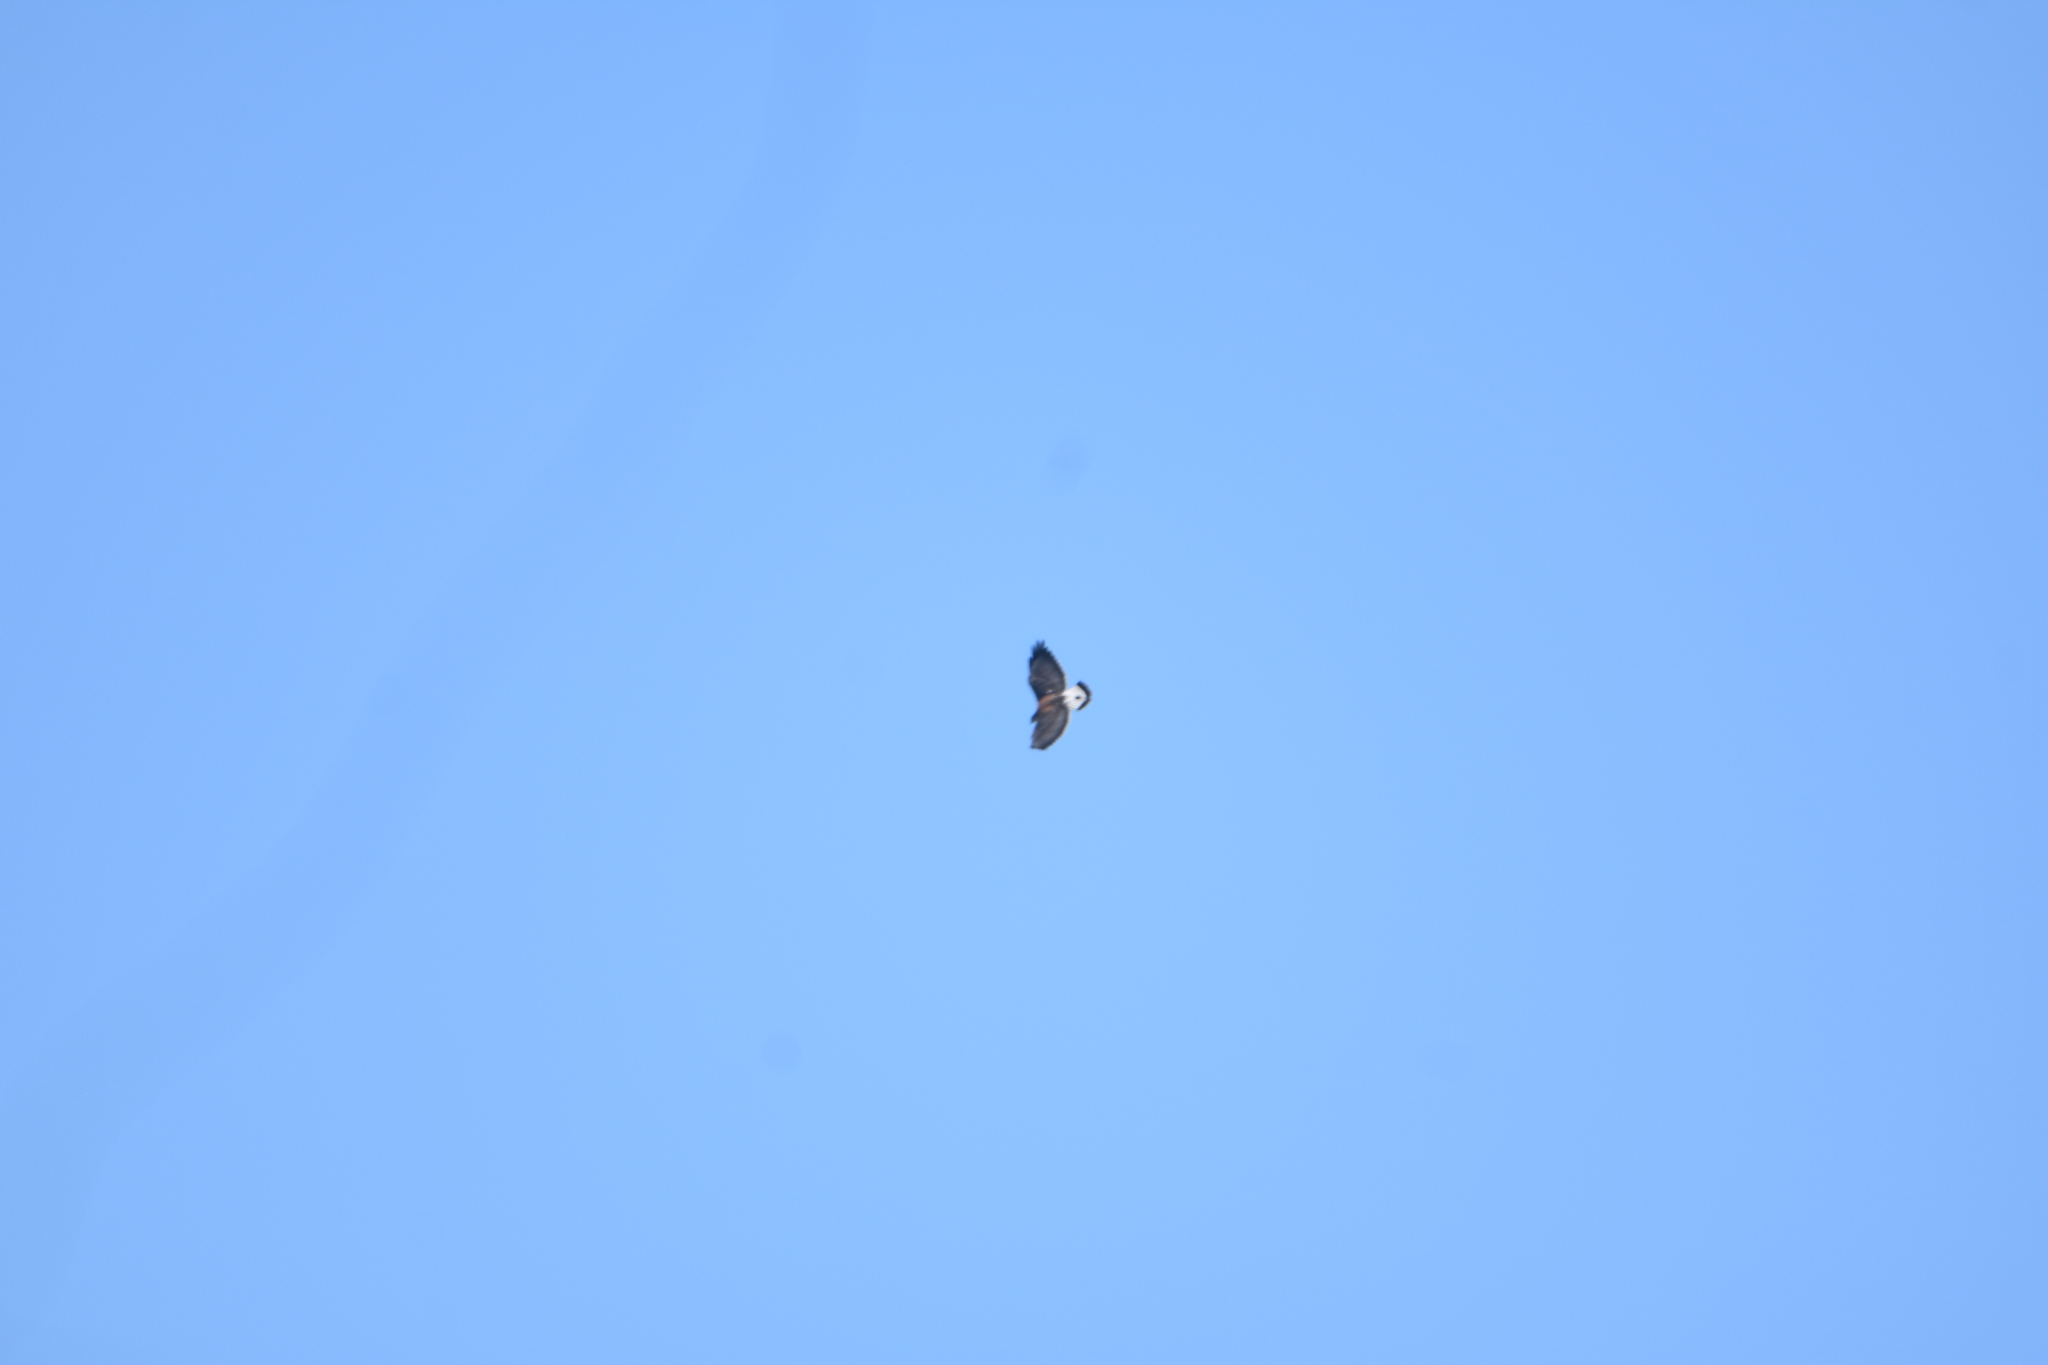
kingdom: Animalia
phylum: Chordata
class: Aves
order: Accipitriformes
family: Accipitridae
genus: Buteo
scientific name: Buteo polyosoma
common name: Variable hawk
